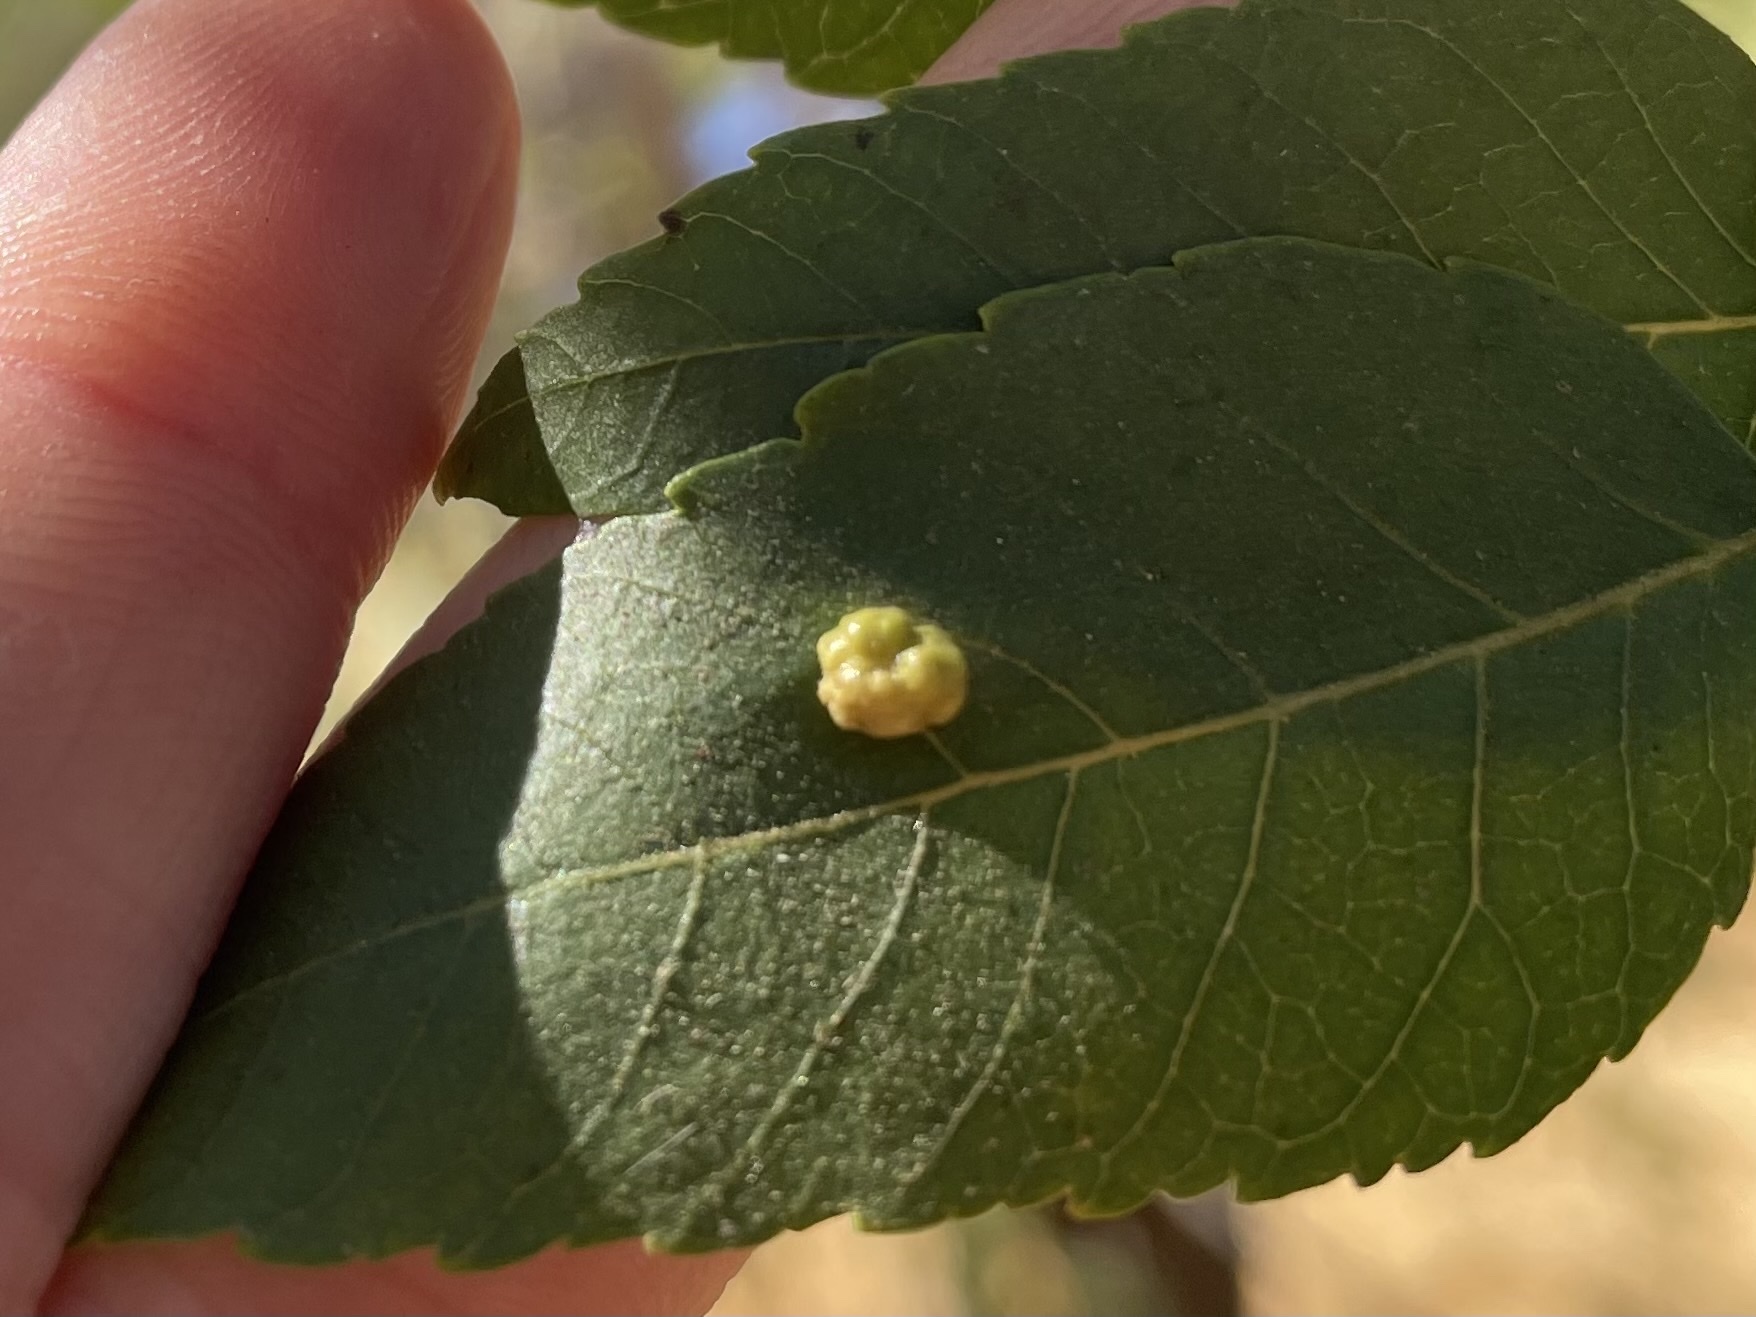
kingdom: Animalia
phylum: Arthropoda
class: Arachnida
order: Trombidiformes
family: Eriophyidae
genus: Aceria
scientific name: Aceria brachytarsus
